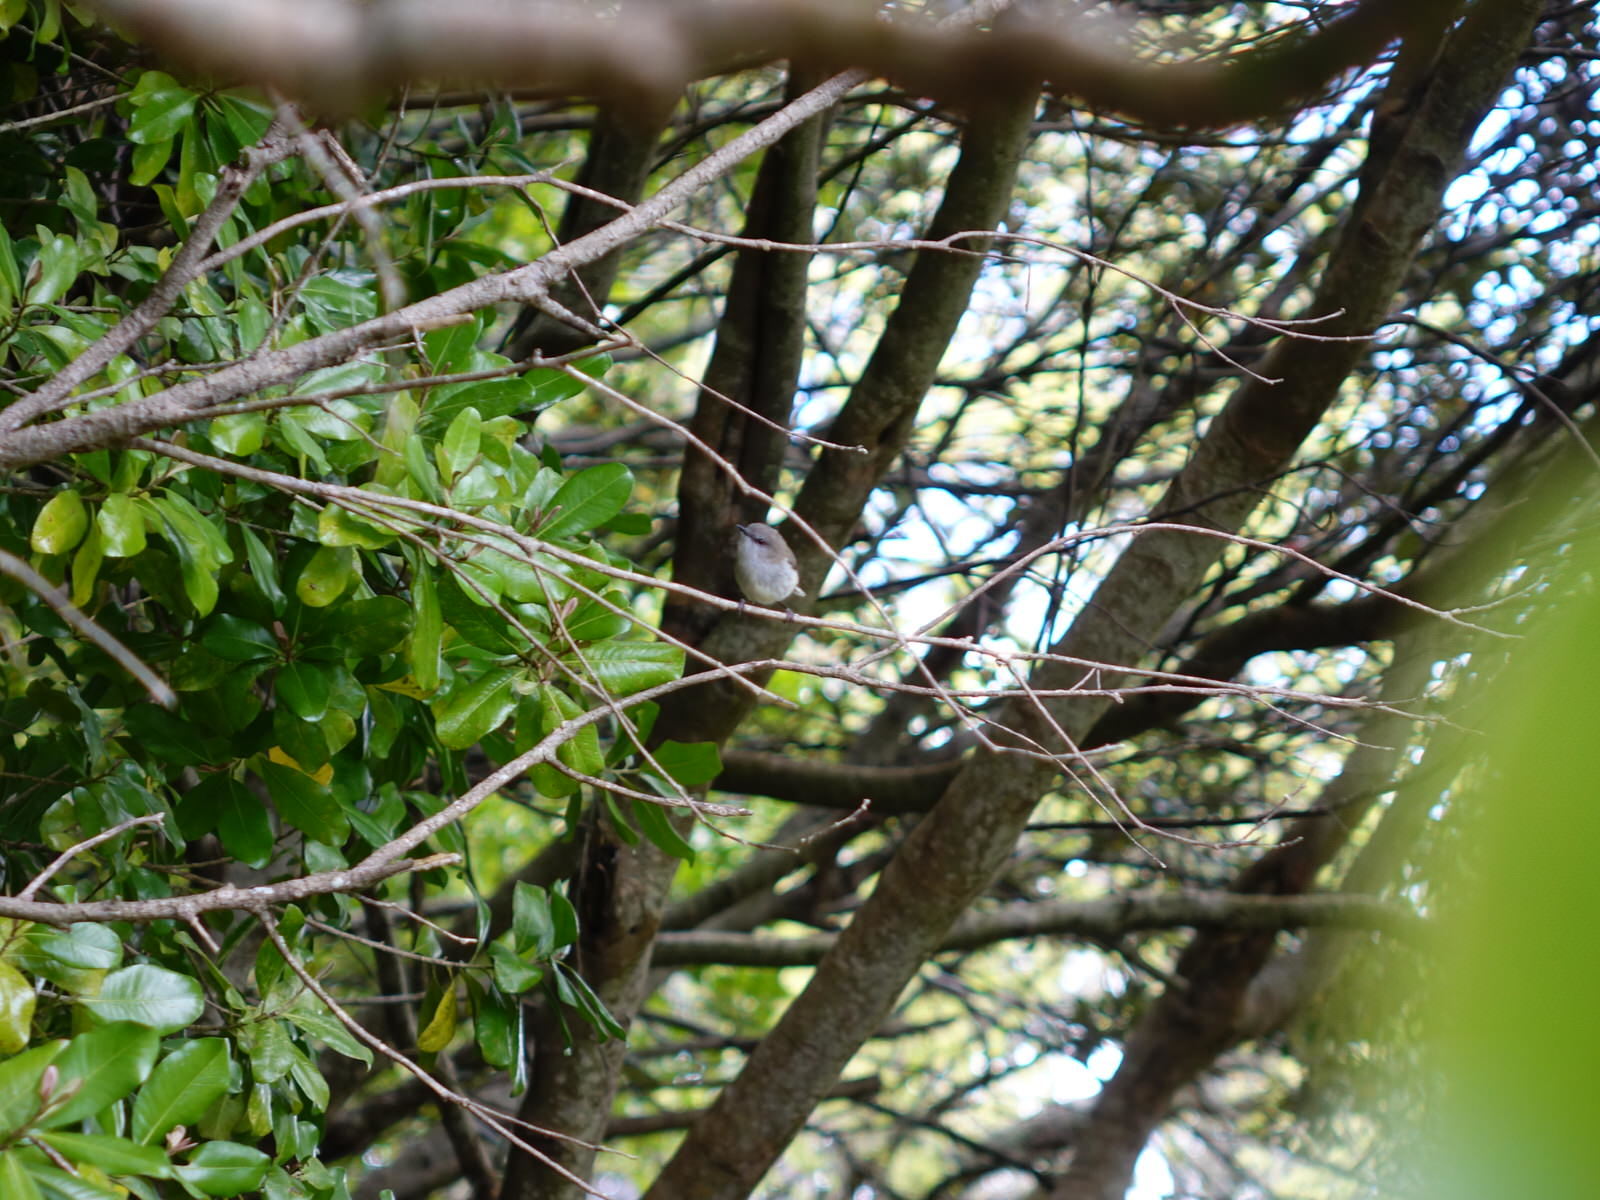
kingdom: Animalia
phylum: Chordata
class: Aves
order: Passeriformes
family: Acanthizidae
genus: Gerygone
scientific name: Gerygone igata
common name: Grey gerygone
